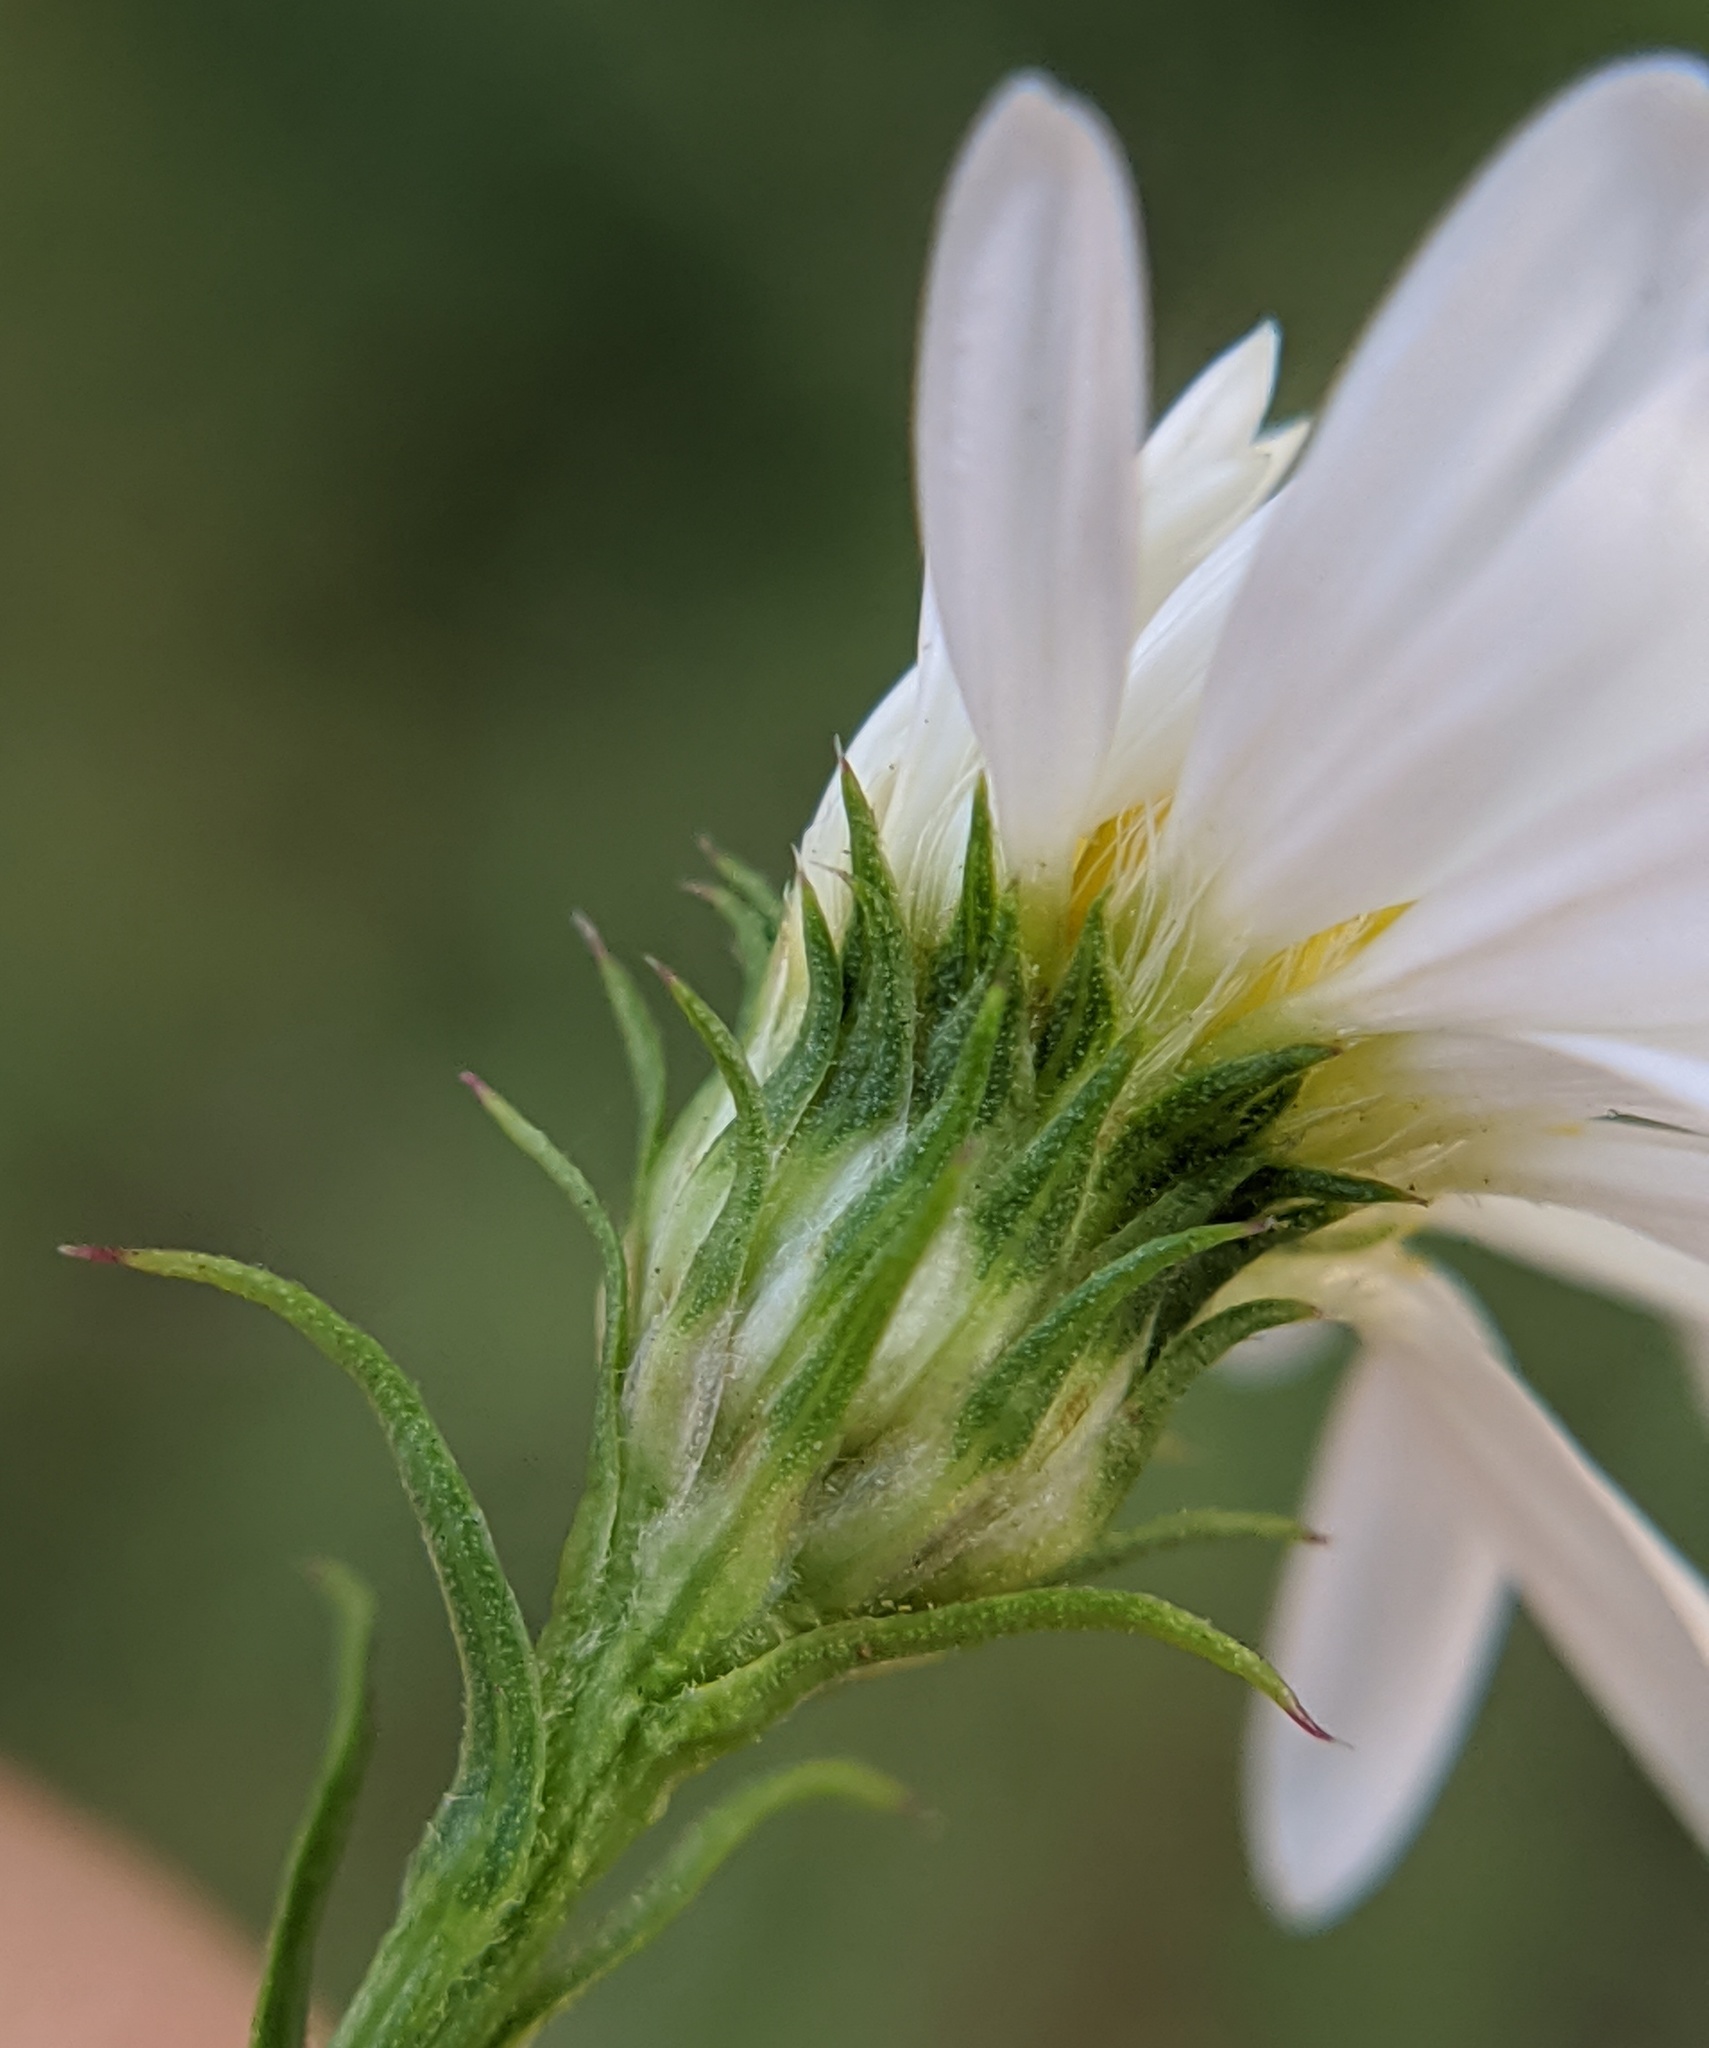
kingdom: Plantae
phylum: Tracheophyta
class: Magnoliopsida
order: Asterales
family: Asteraceae
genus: Symphyotrichum
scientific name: Symphyotrichum pilosum
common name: Awl aster
